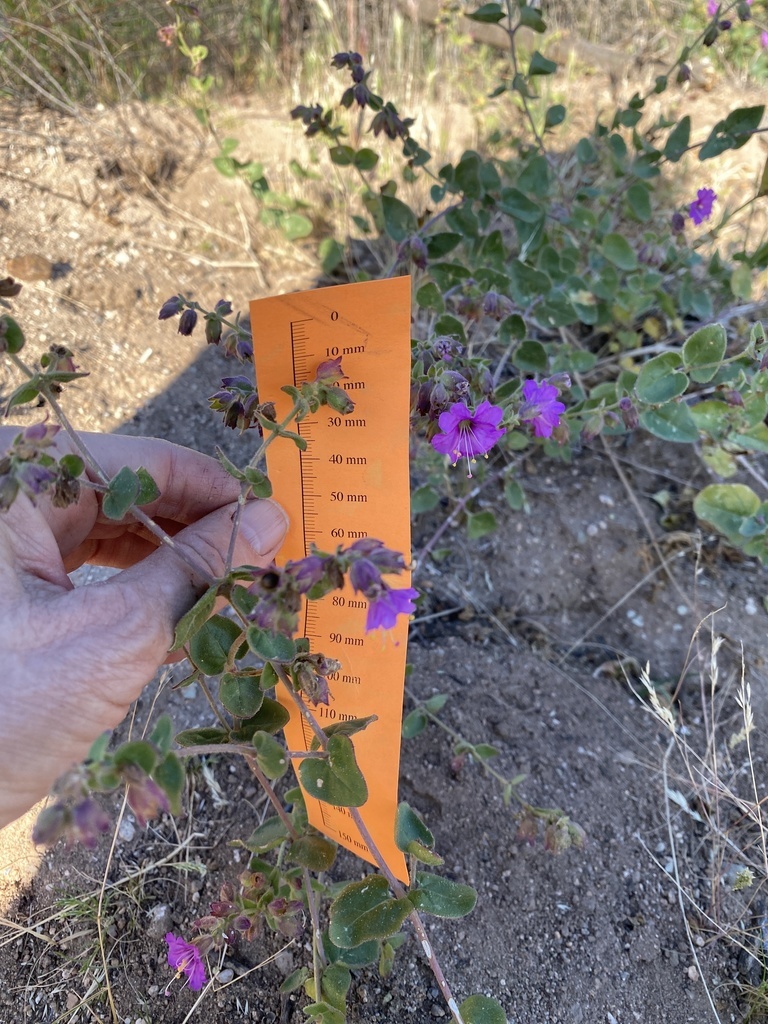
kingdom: Plantae
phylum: Tracheophyta
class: Magnoliopsida
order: Caryophyllales
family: Nyctaginaceae
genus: Mirabilis
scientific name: Mirabilis laevis
